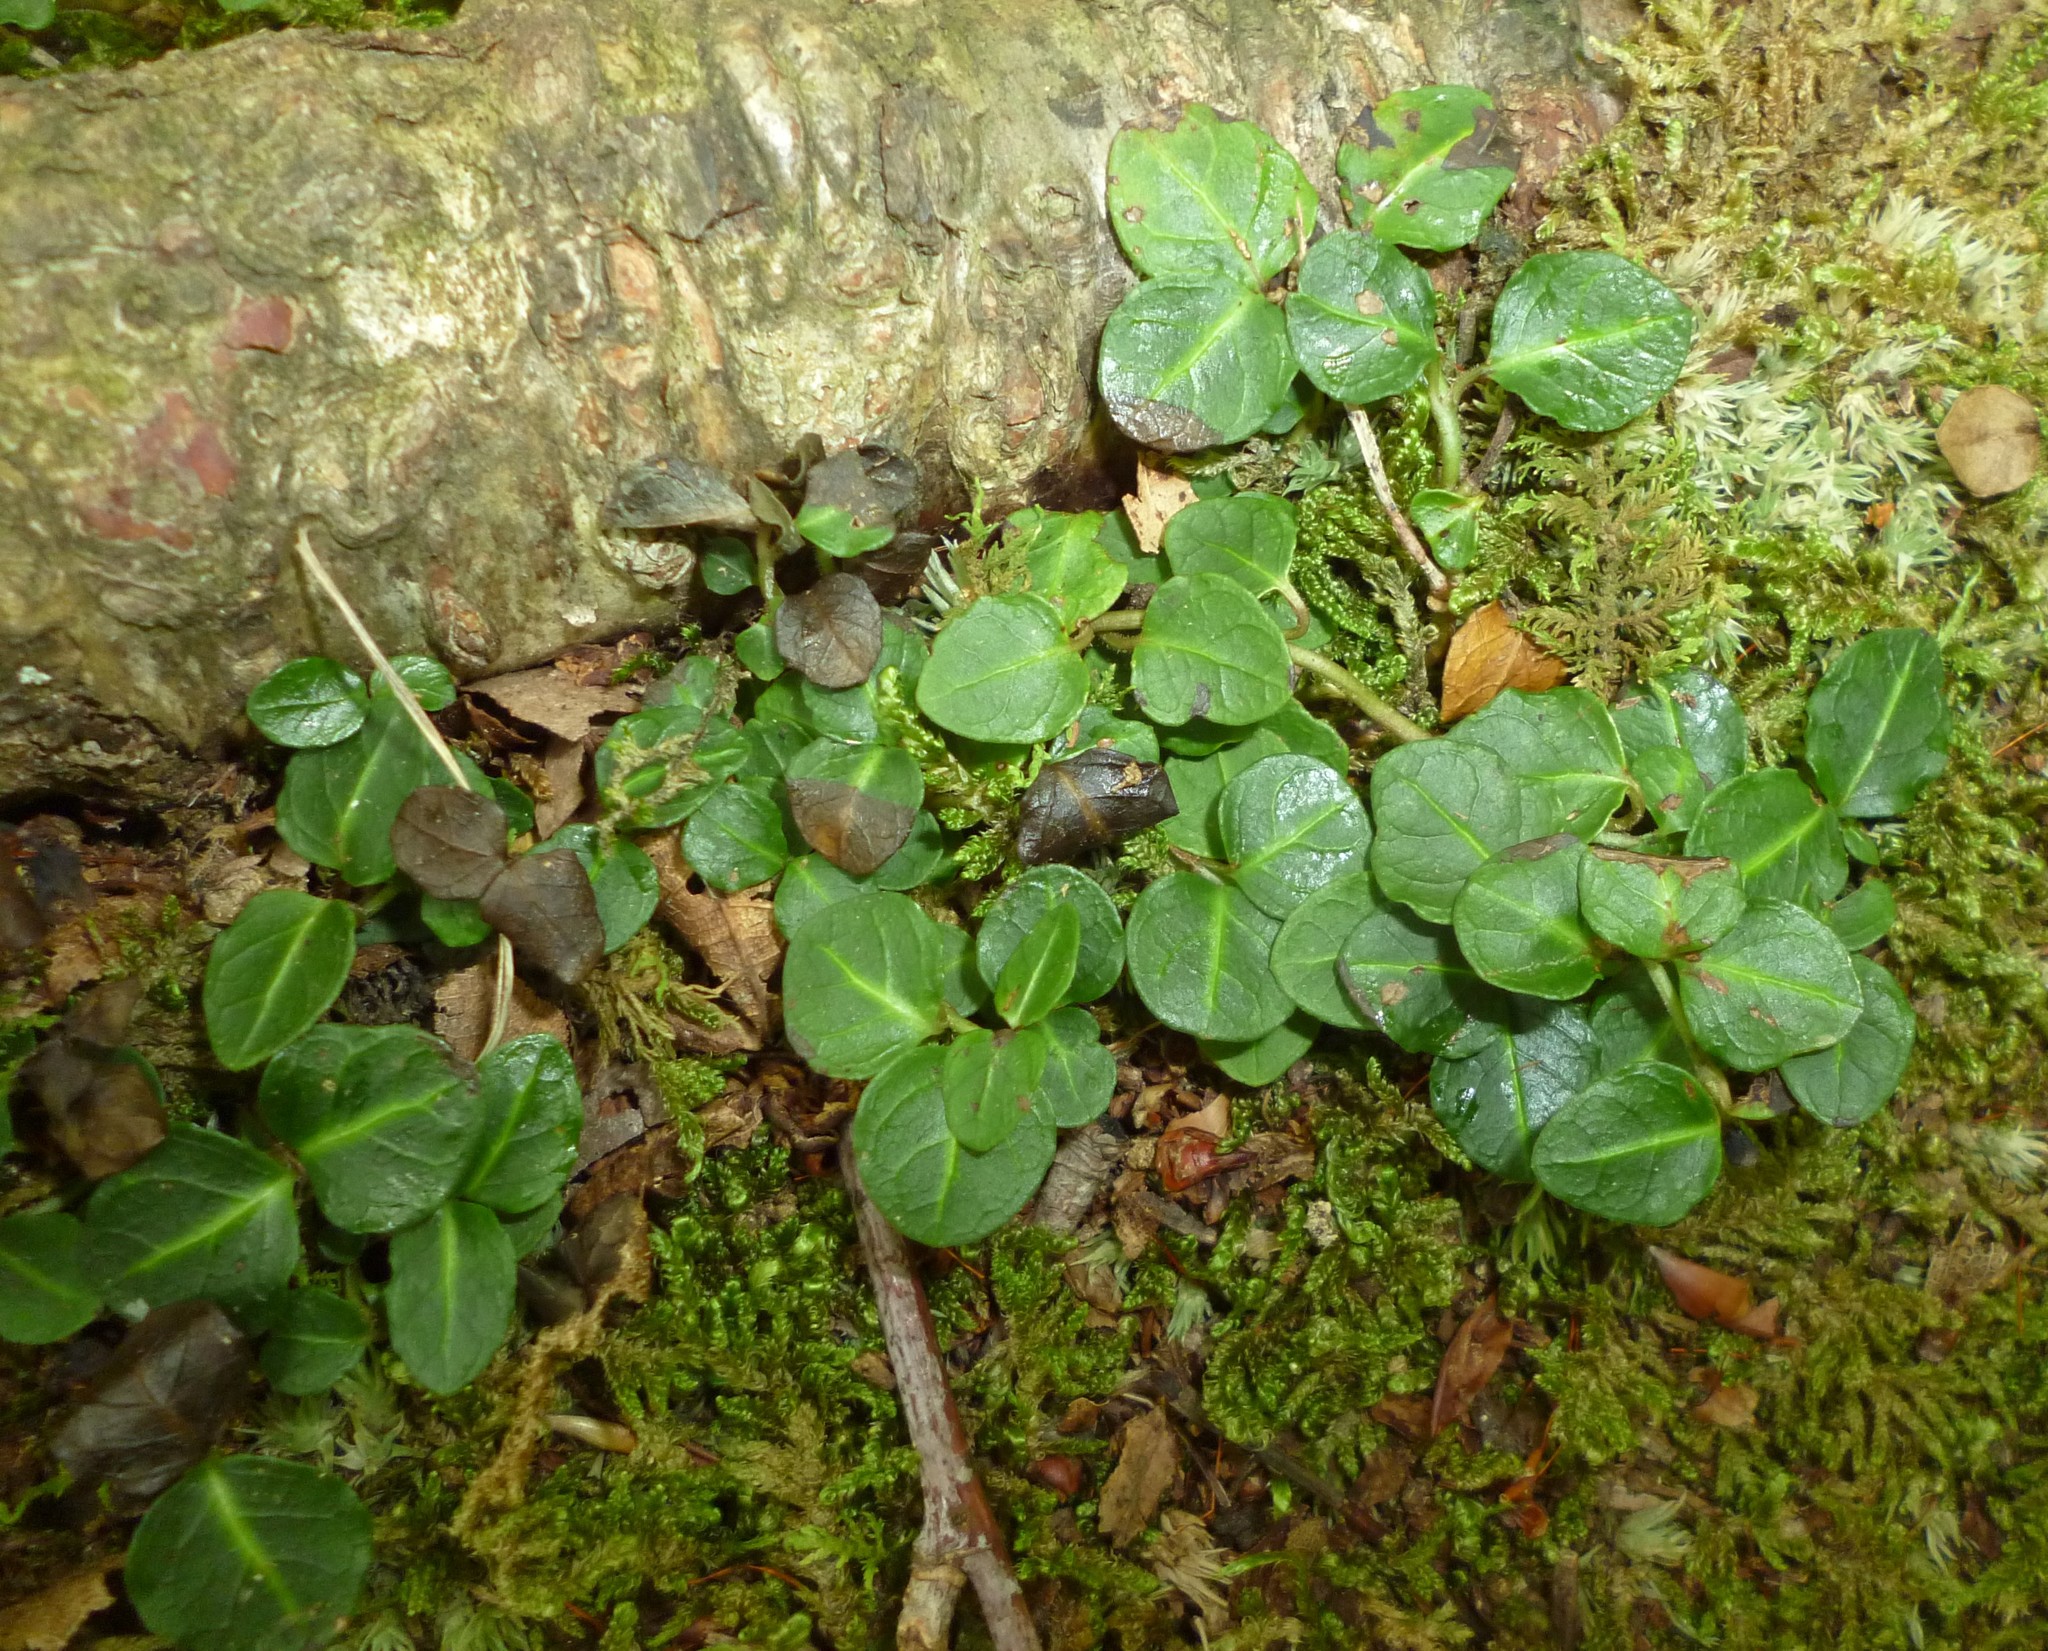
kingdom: Plantae
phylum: Tracheophyta
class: Magnoliopsida
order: Gentianales
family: Rubiaceae
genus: Mitchella
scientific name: Mitchella repens
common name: Partridge-berry
